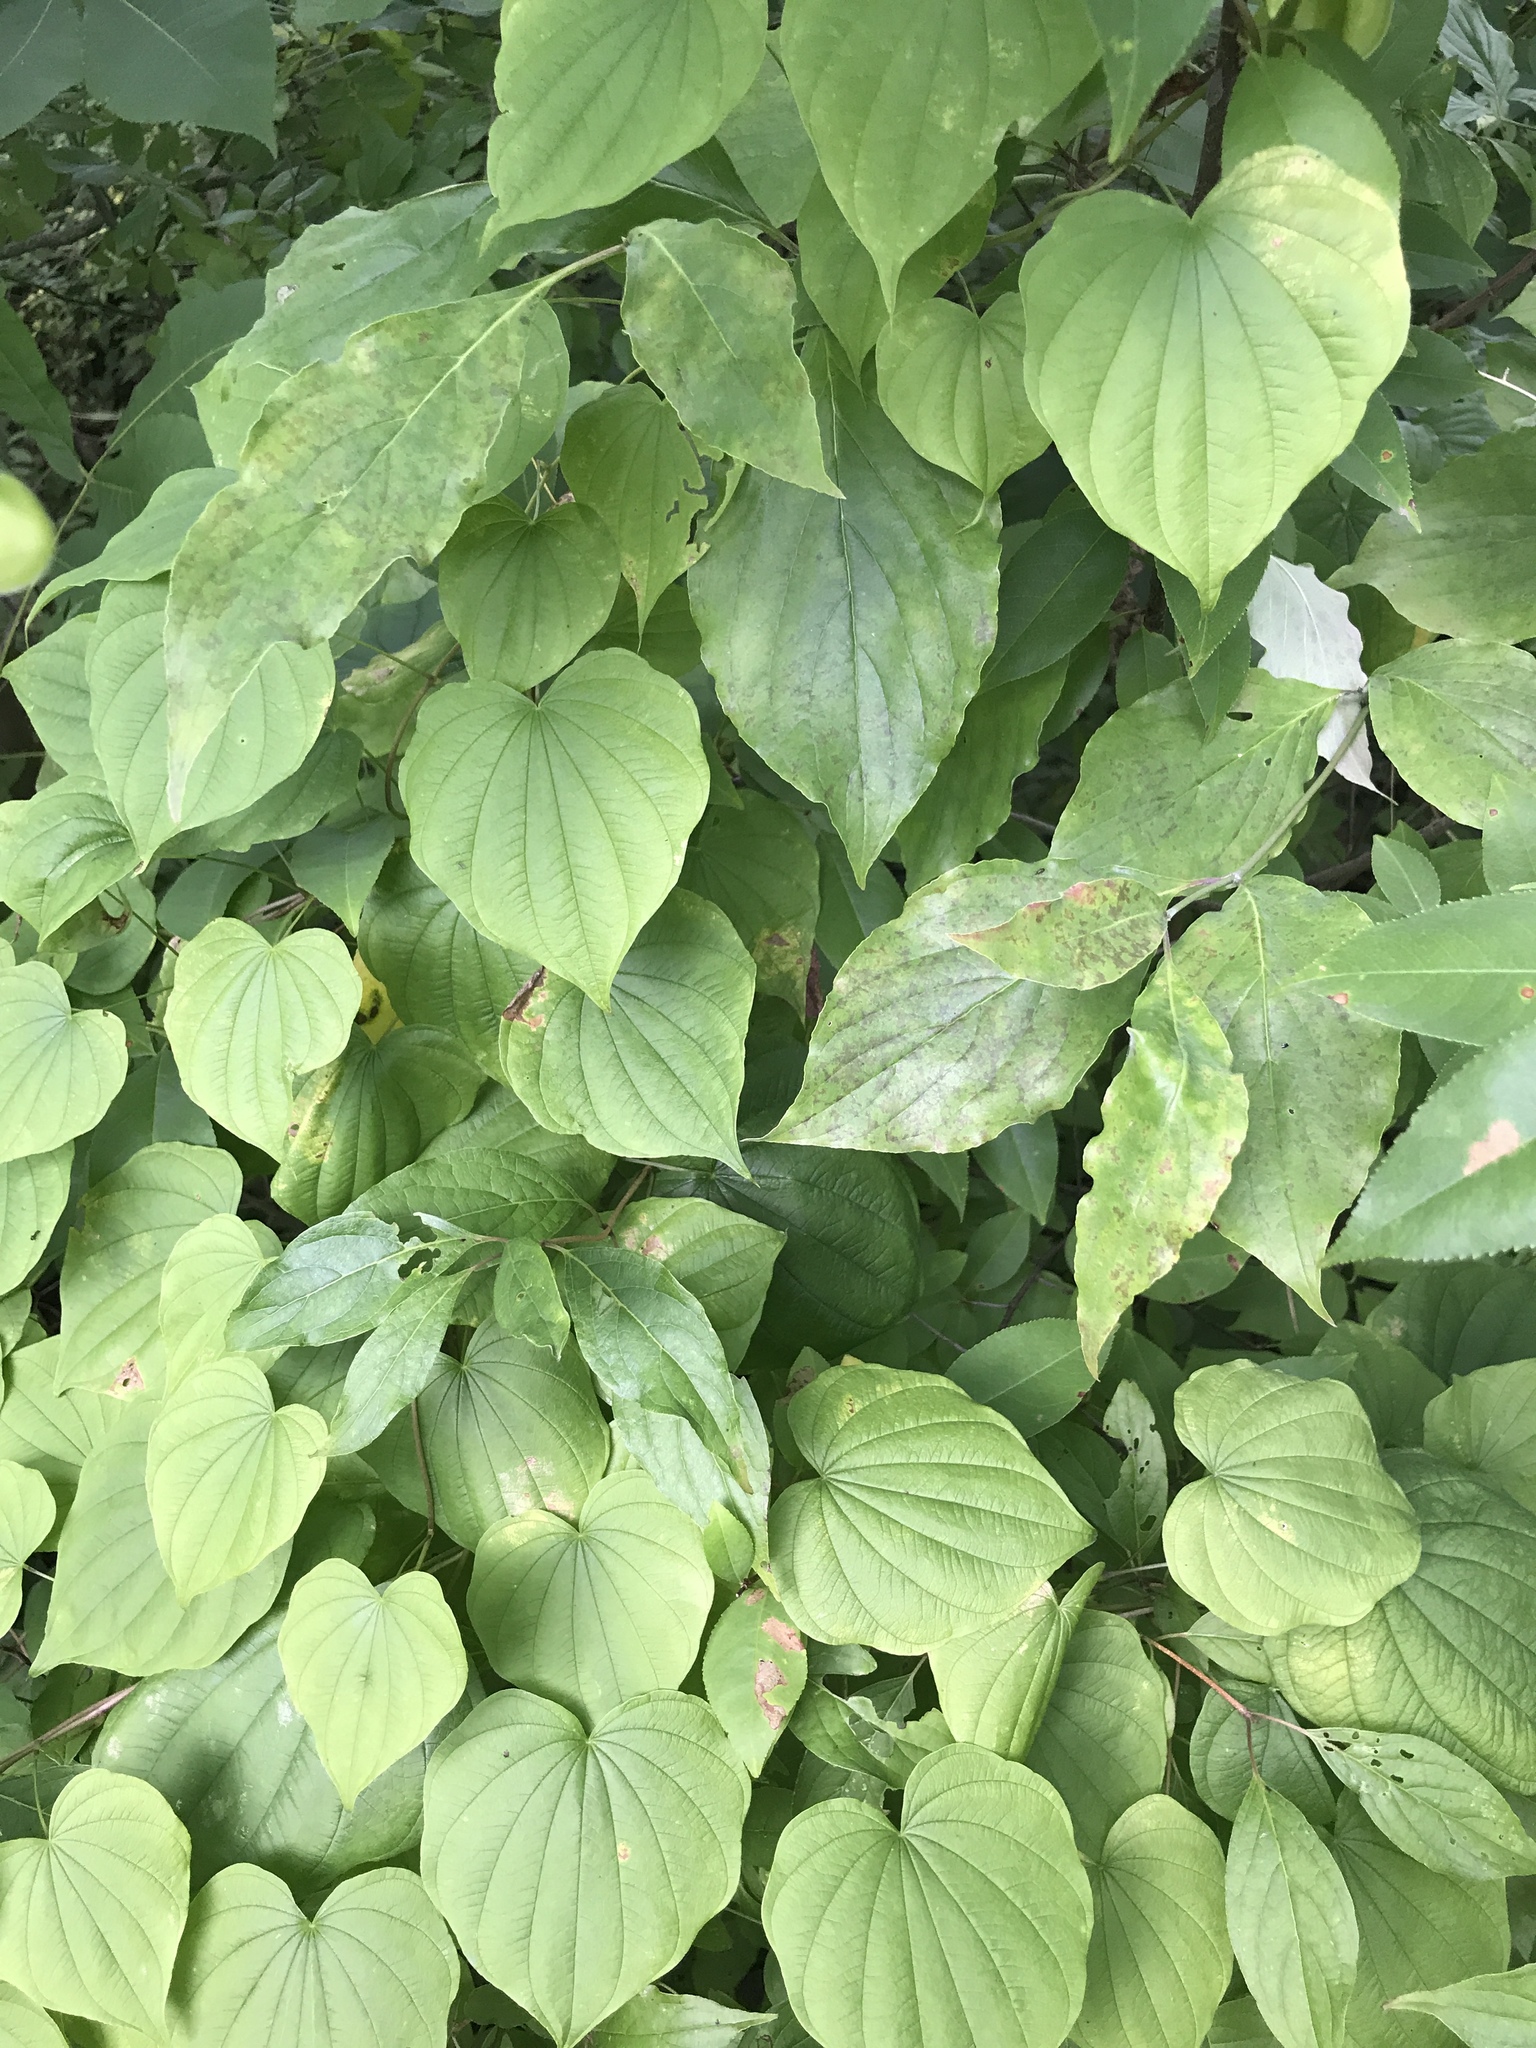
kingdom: Plantae
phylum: Tracheophyta
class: Liliopsida
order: Dioscoreales
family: Dioscoreaceae
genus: Dioscorea
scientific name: Dioscorea villosa
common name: Wild yam
